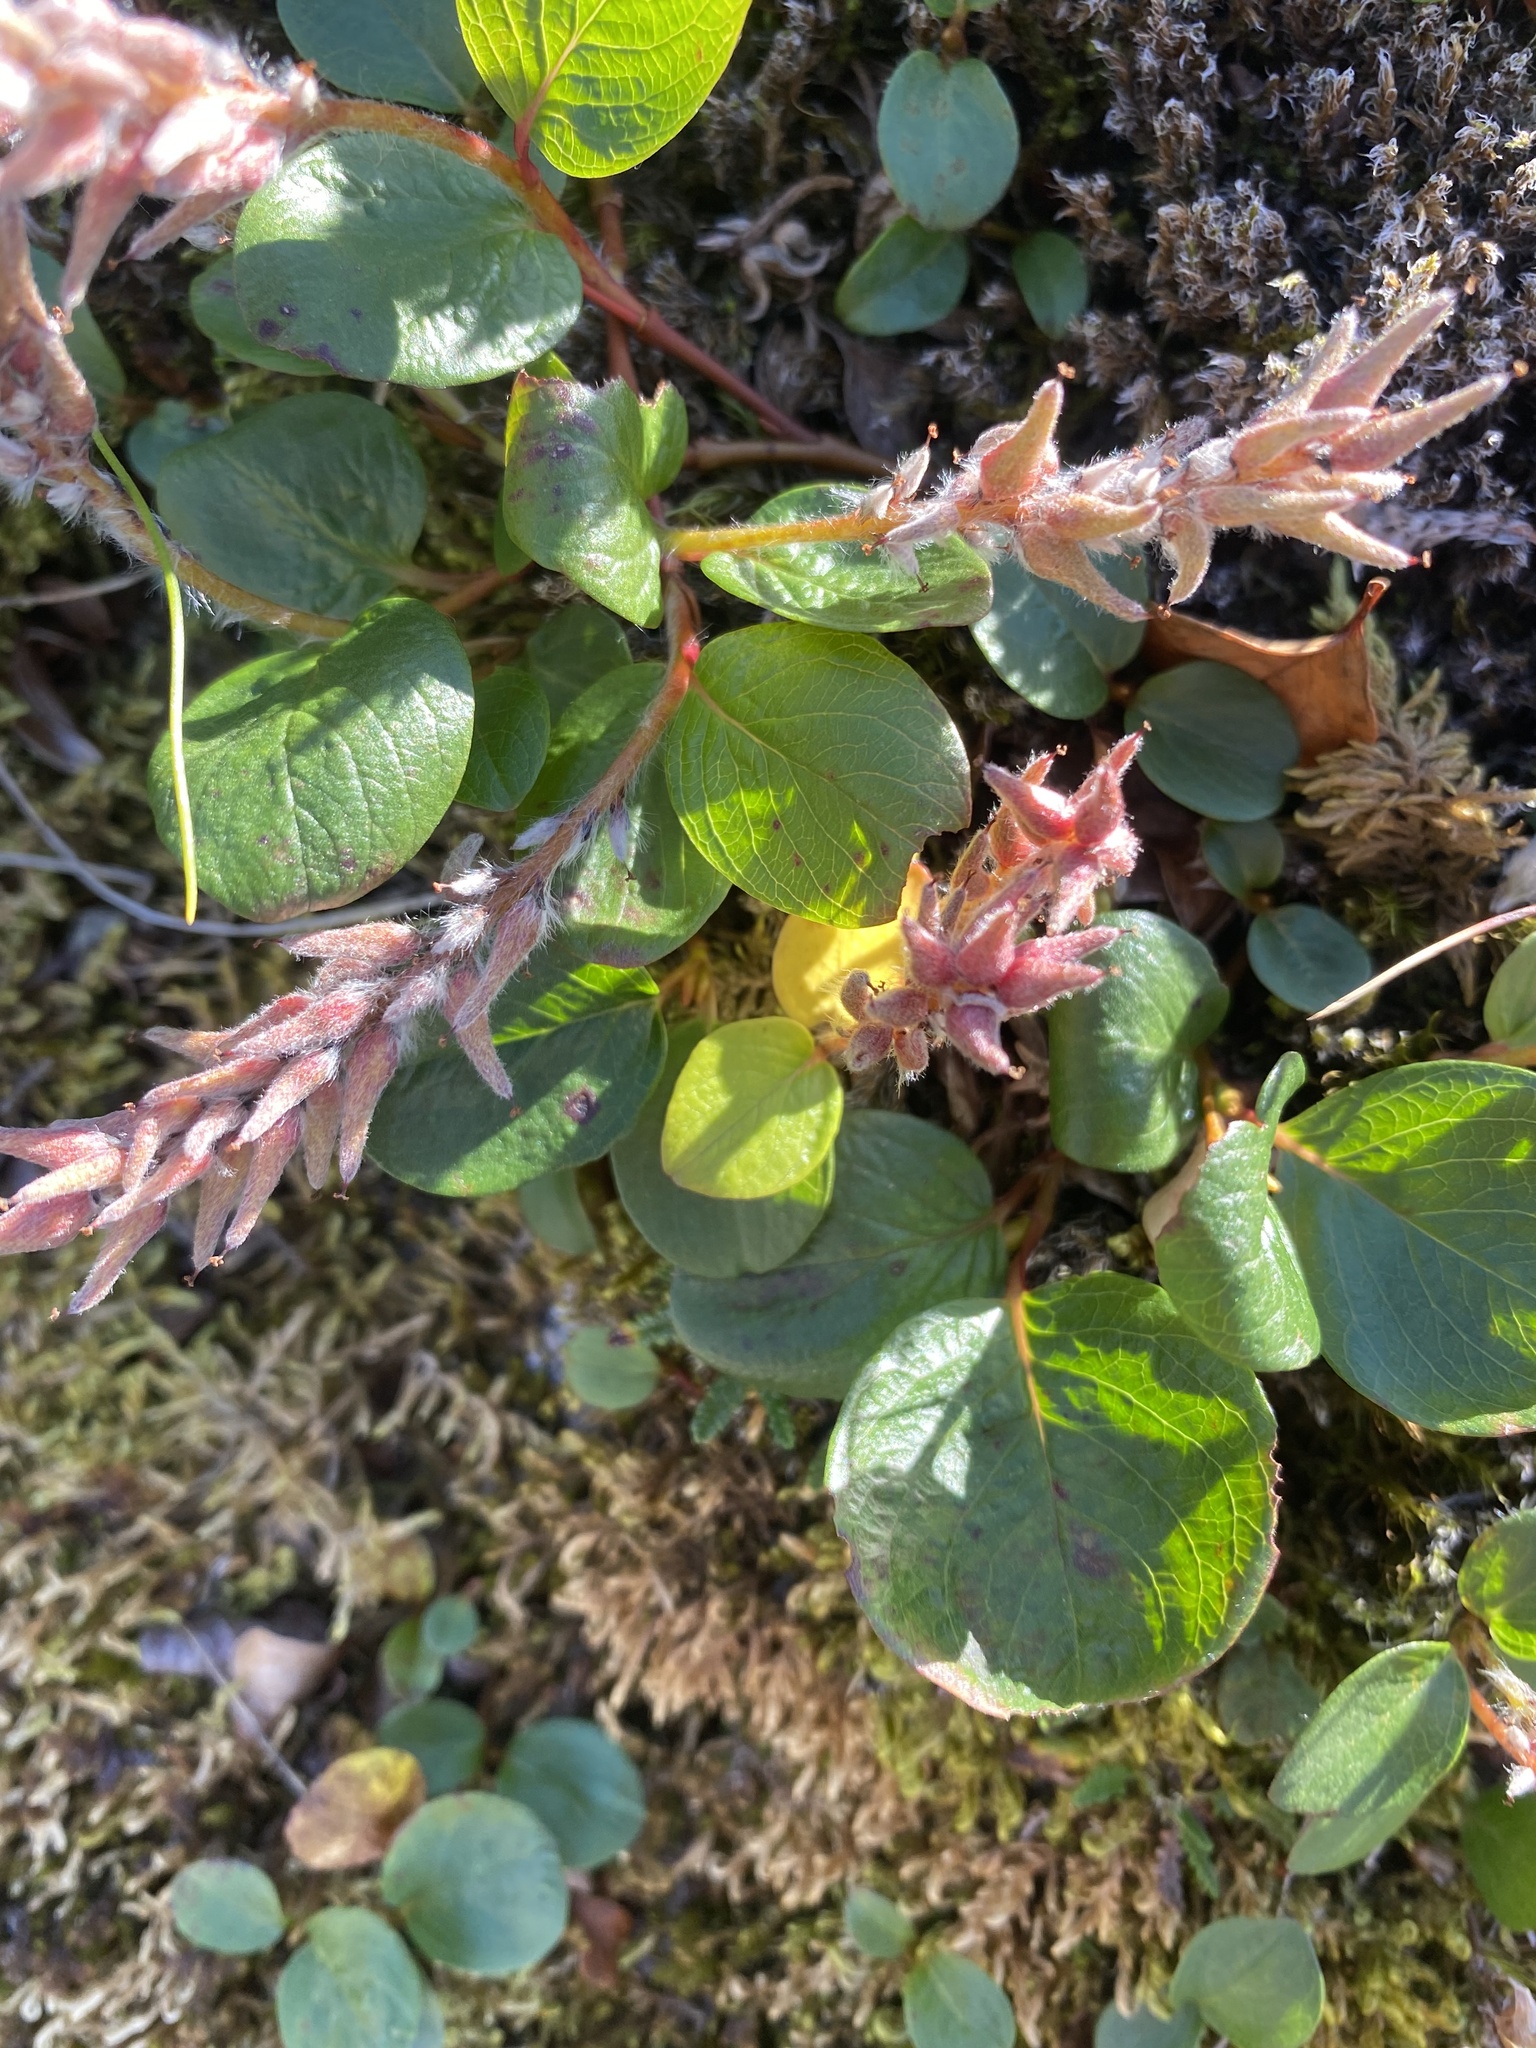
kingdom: Plantae
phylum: Tracheophyta
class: Magnoliopsida
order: Malpighiales
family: Salicaceae
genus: Salix
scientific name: Salix polaris
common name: Polar willow
